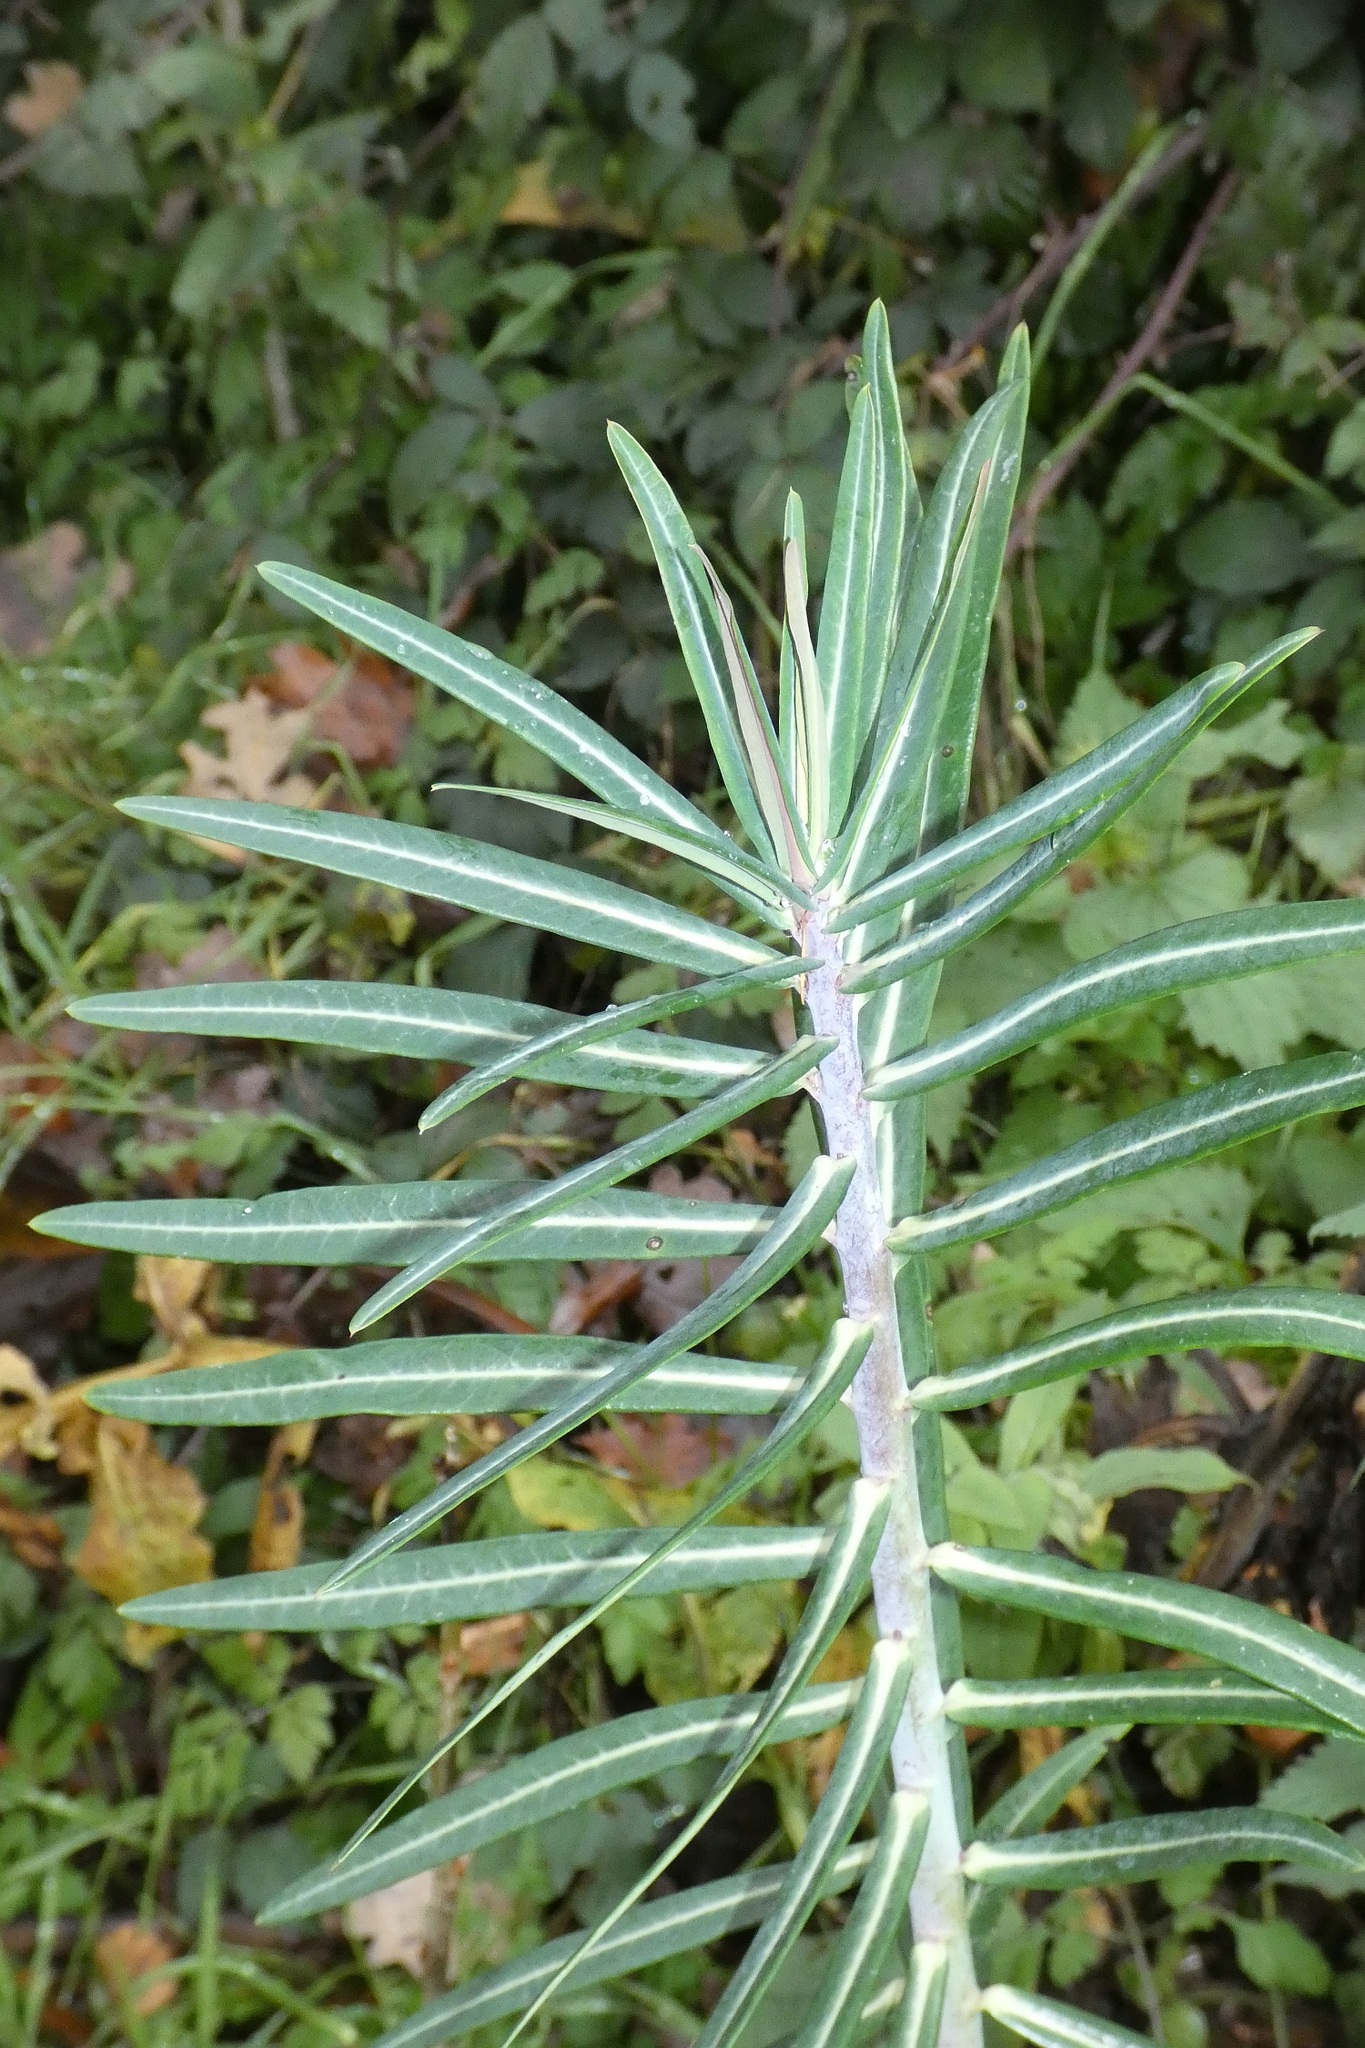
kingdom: Plantae
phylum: Tracheophyta
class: Magnoliopsida
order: Malpighiales
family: Euphorbiaceae
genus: Euphorbia
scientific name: Euphorbia lathyris
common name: Caper spurge
